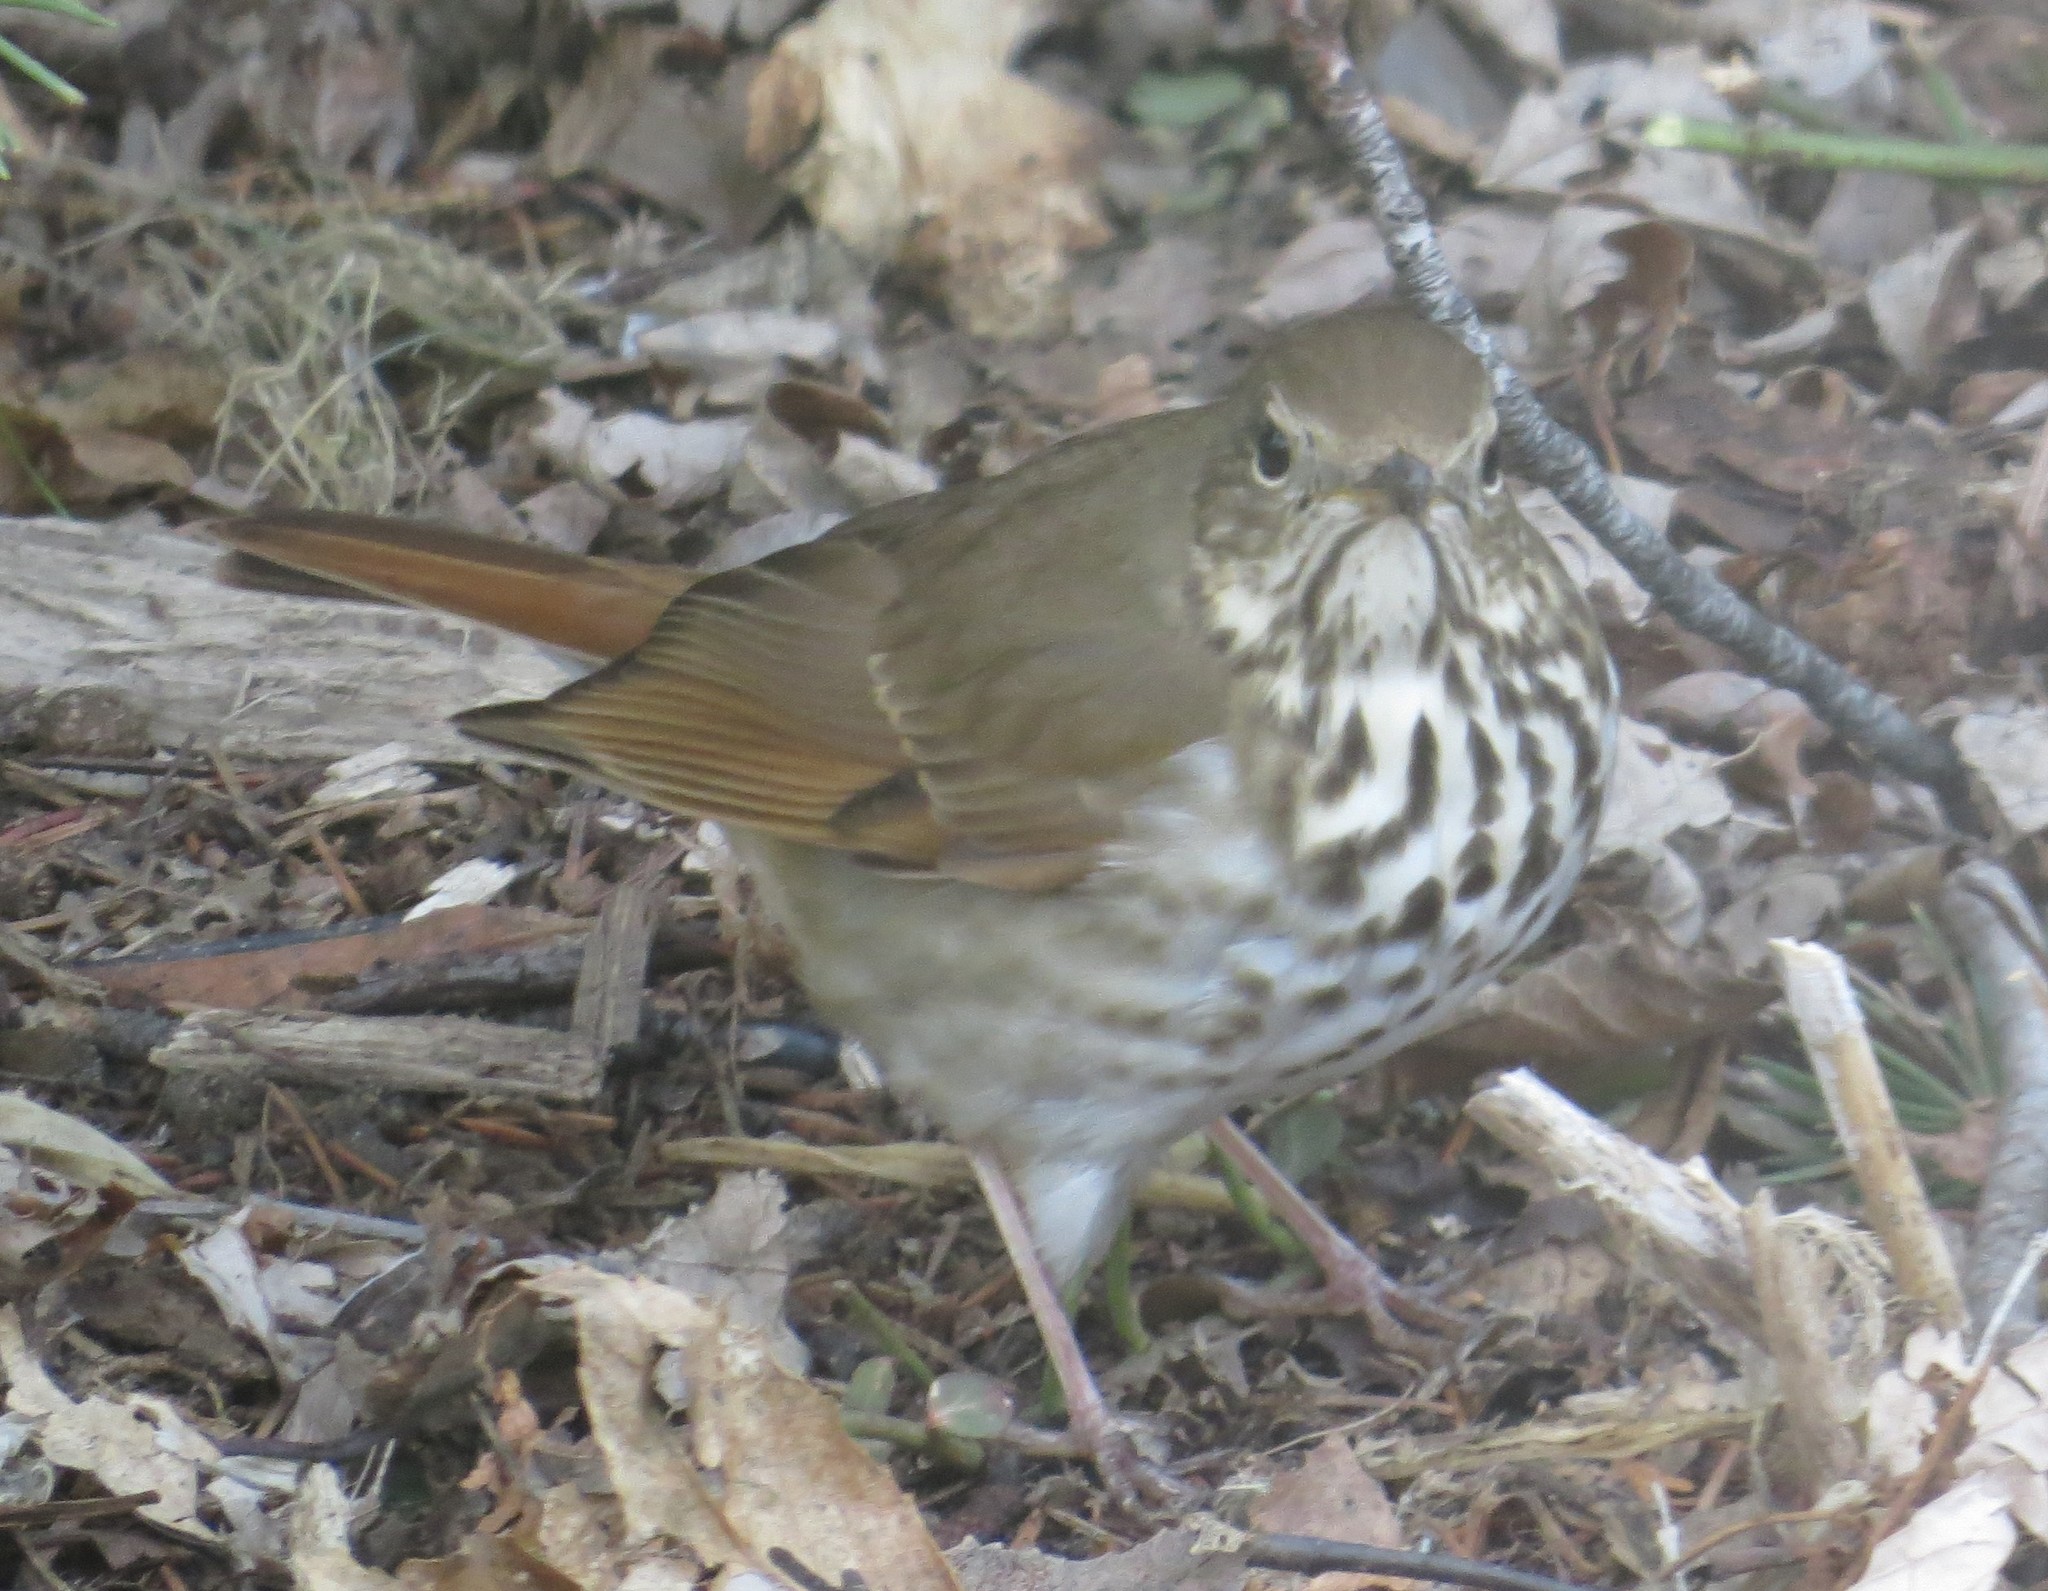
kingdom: Animalia
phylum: Chordata
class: Aves
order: Passeriformes
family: Turdidae
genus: Catharus
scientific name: Catharus guttatus
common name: Hermit thrush
